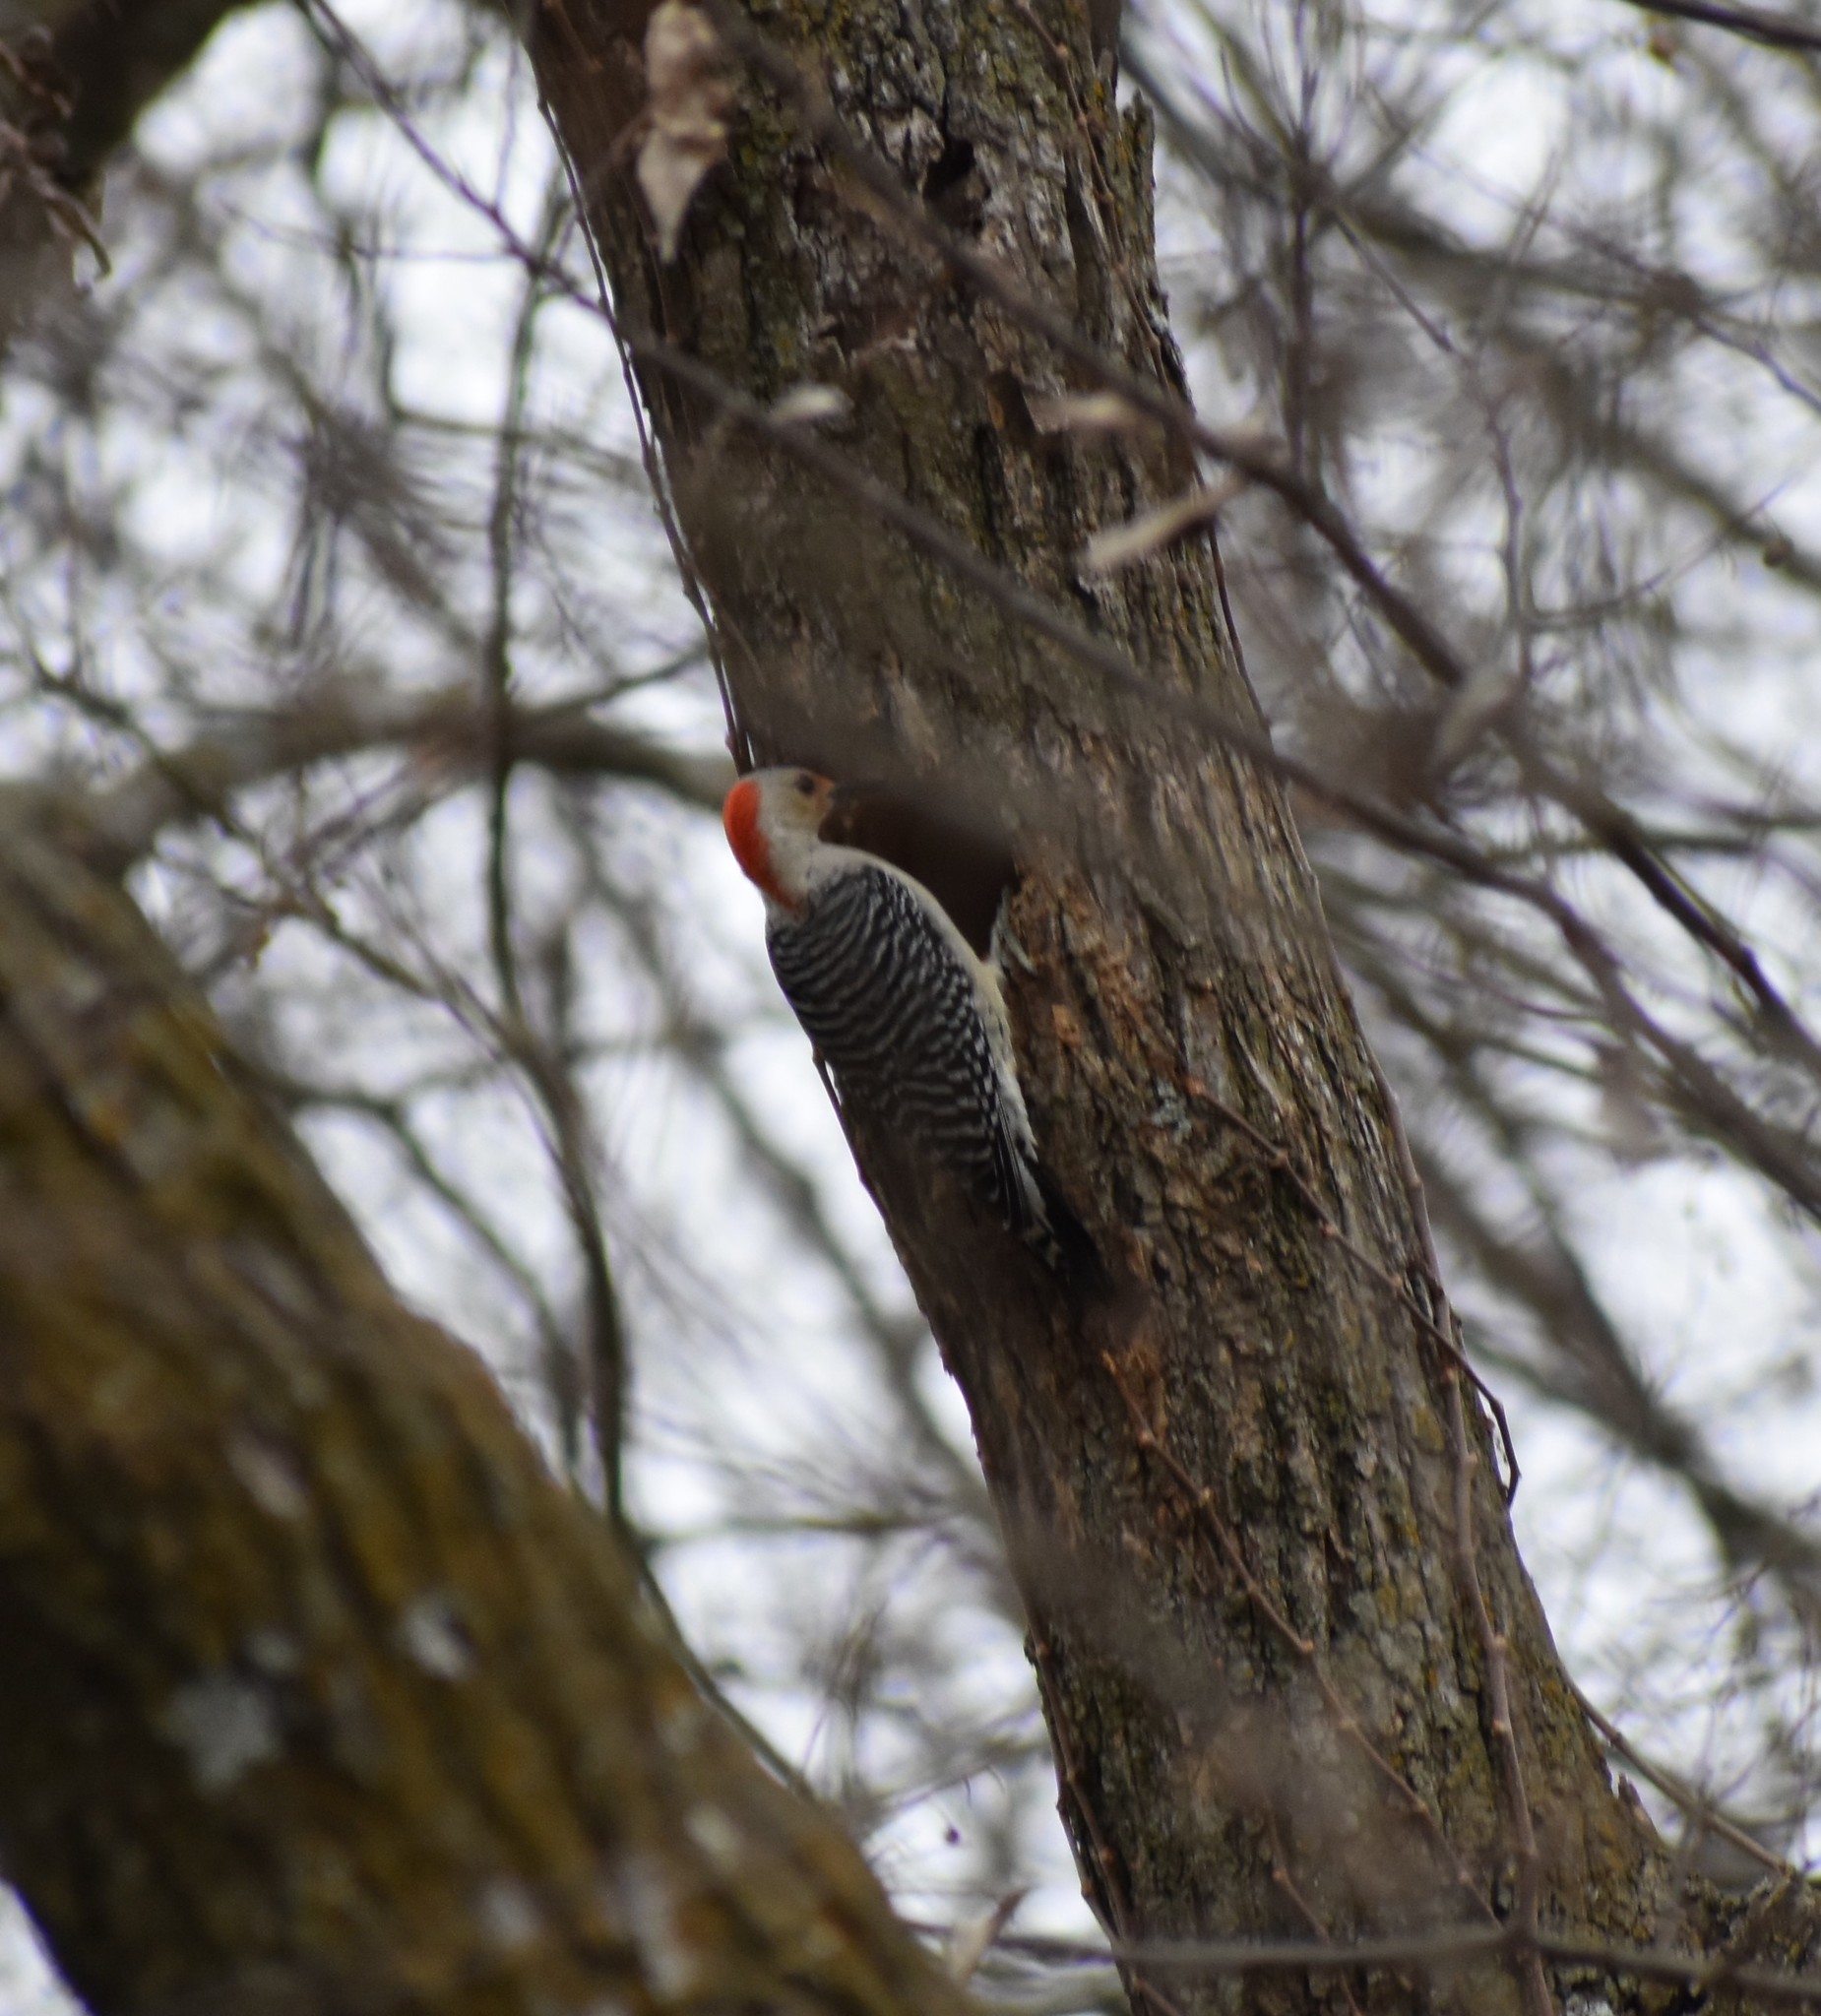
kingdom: Animalia
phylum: Chordata
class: Aves
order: Piciformes
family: Picidae
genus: Melanerpes
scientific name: Melanerpes carolinus
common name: Red-bellied woodpecker
